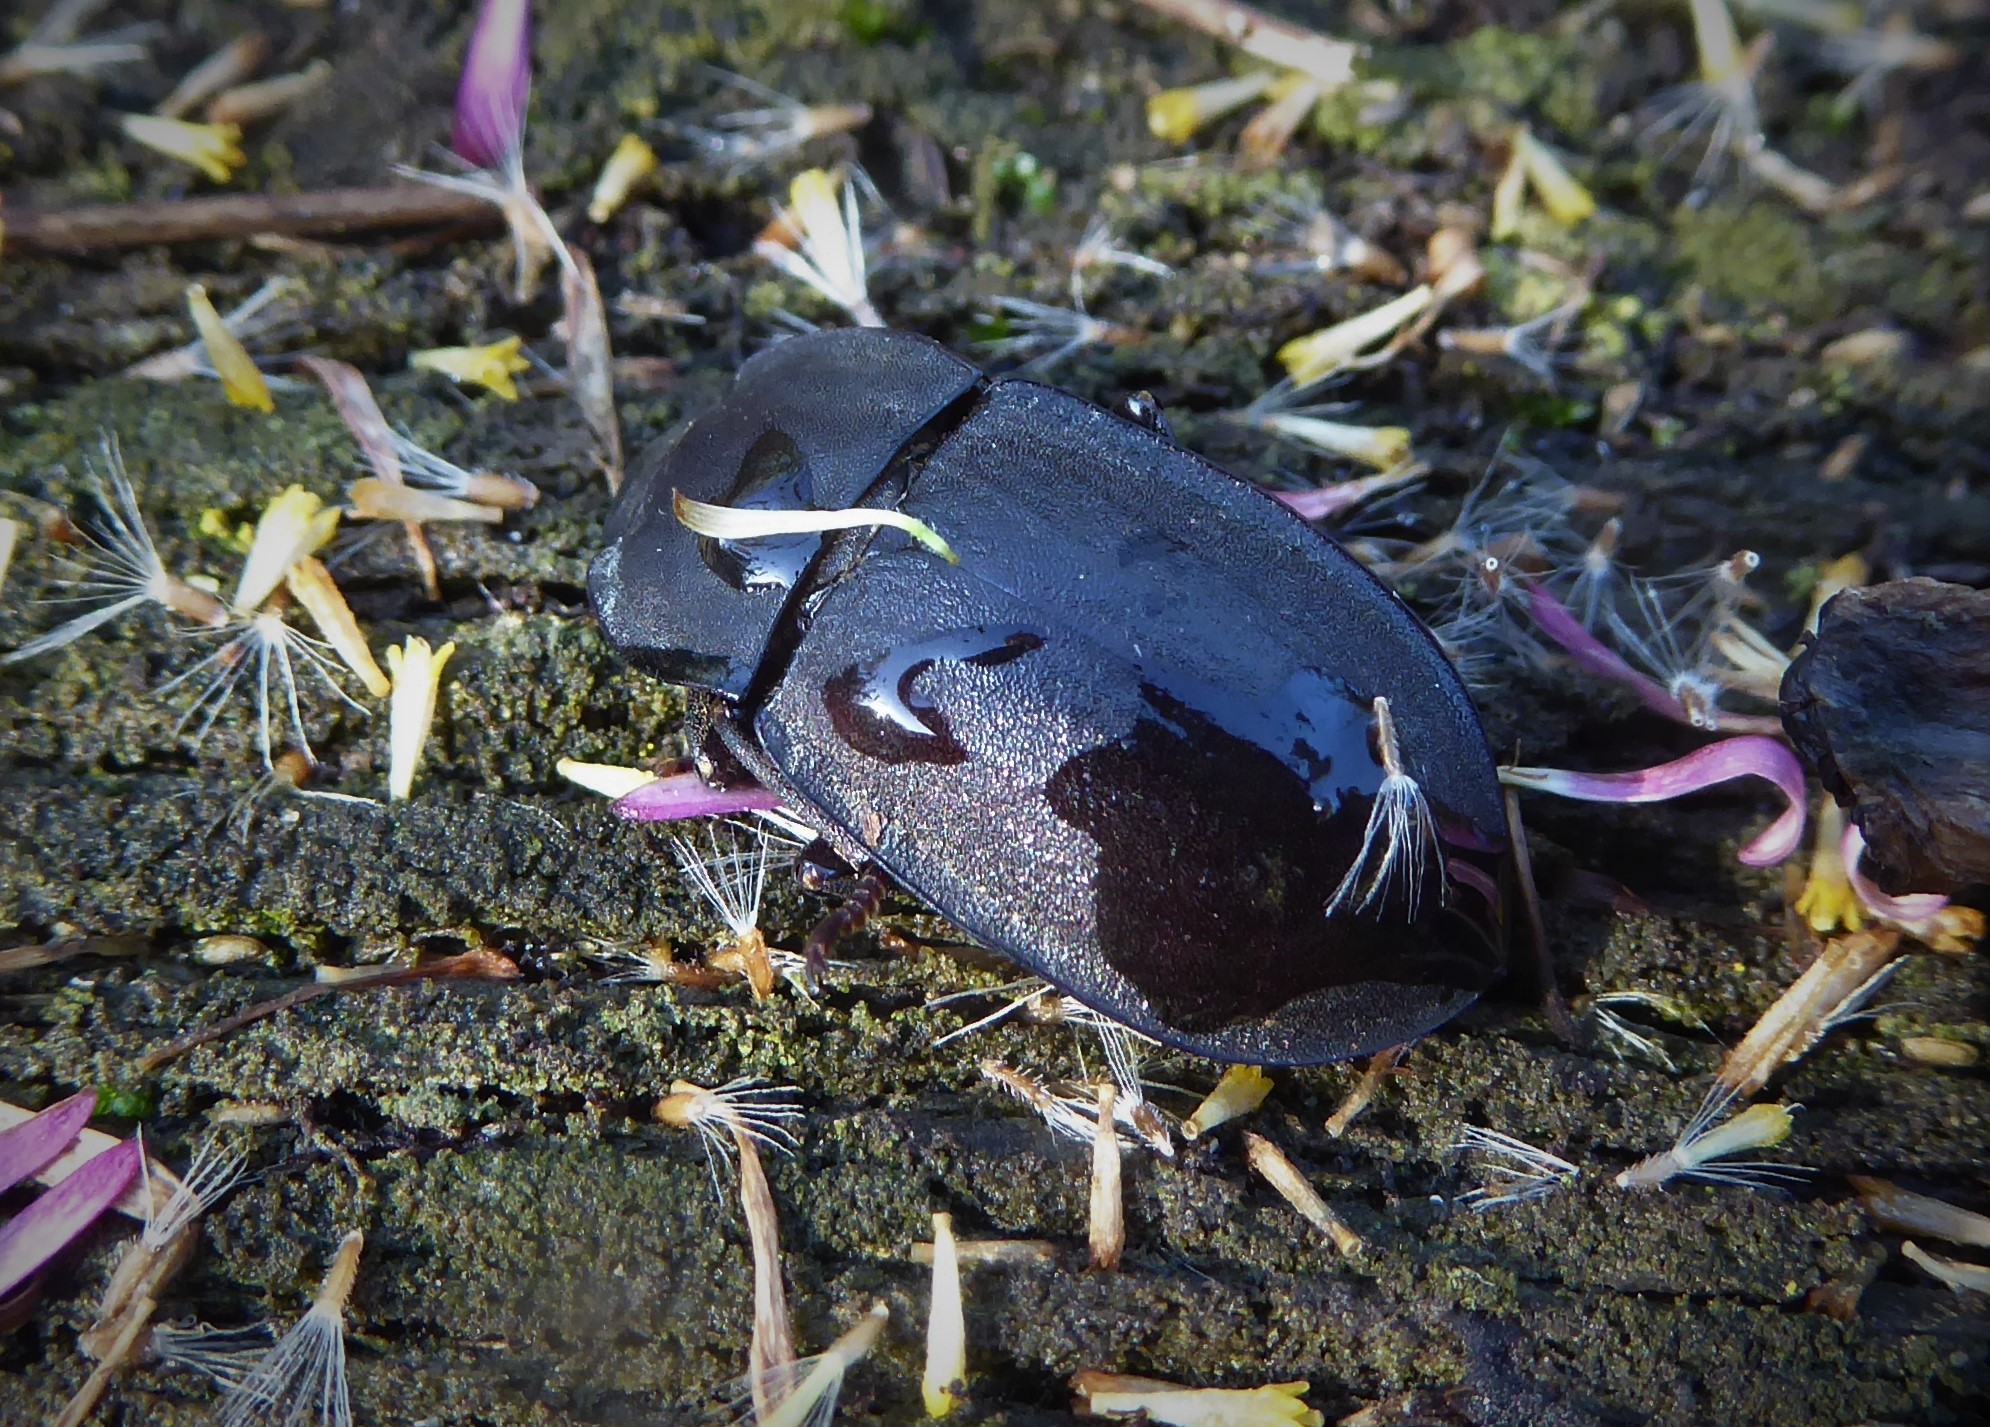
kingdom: Animalia
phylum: Arthropoda
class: Insecta
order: Coleoptera
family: Tenebrionidae
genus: Mimopeus
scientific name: Mimopeus
